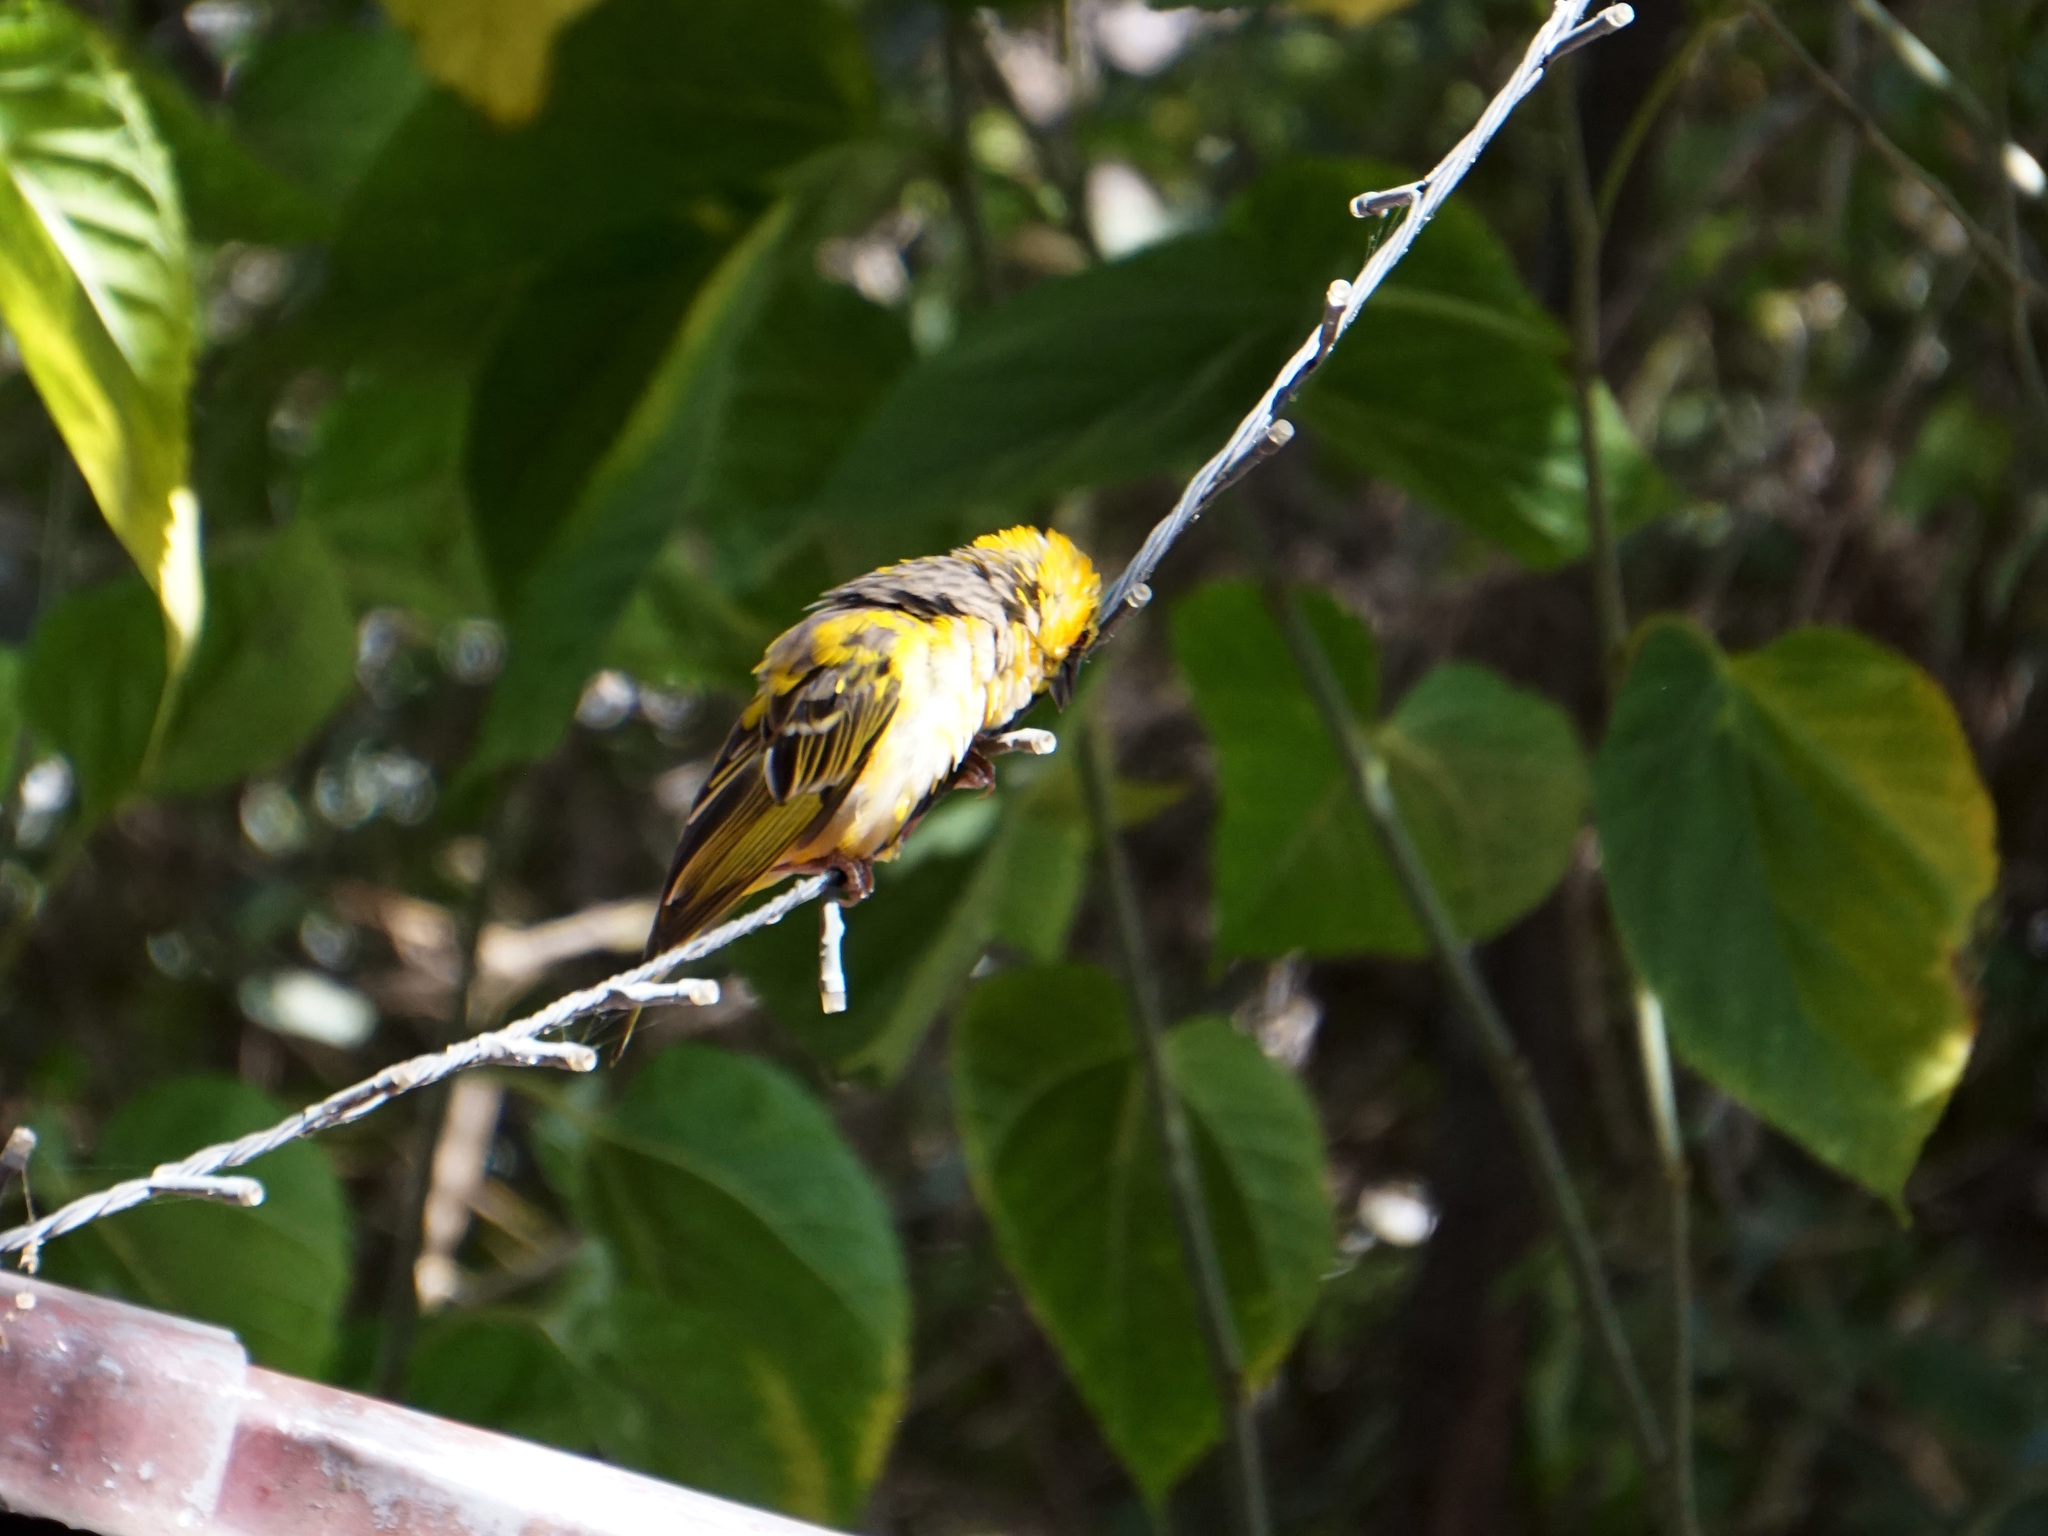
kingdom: Animalia
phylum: Chordata
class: Aves
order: Passeriformes
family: Ploceidae
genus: Ploceus
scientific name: Ploceus cucullatus
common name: Village weaver
